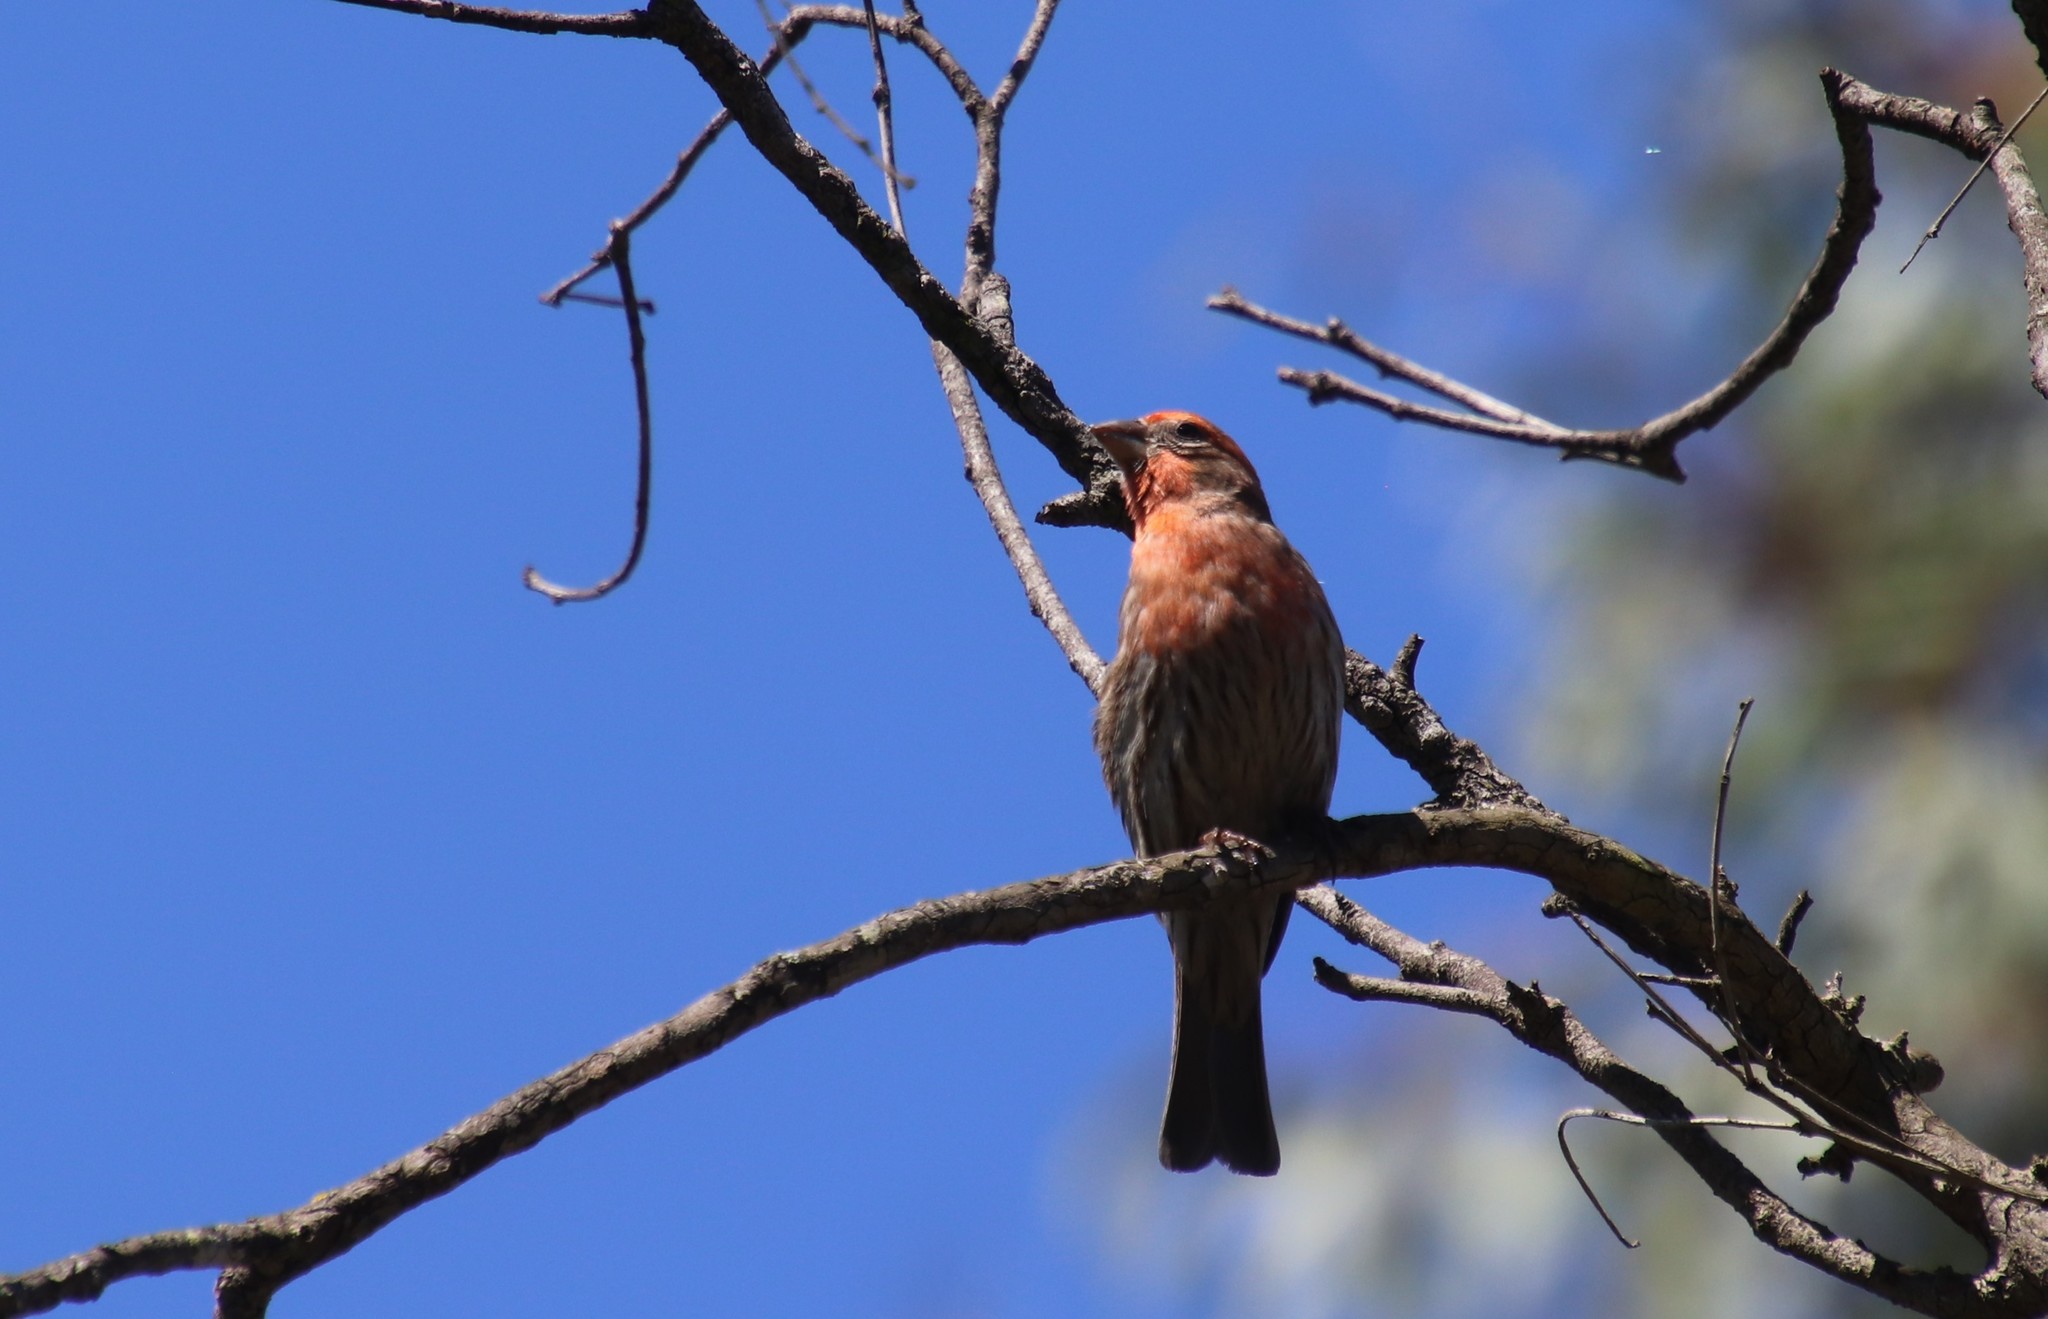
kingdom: Animalia
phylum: Chordata
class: Aves
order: Passeriformes
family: Fringillidae
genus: Haemorhous
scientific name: Haemorhous mexicanus
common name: House finch
